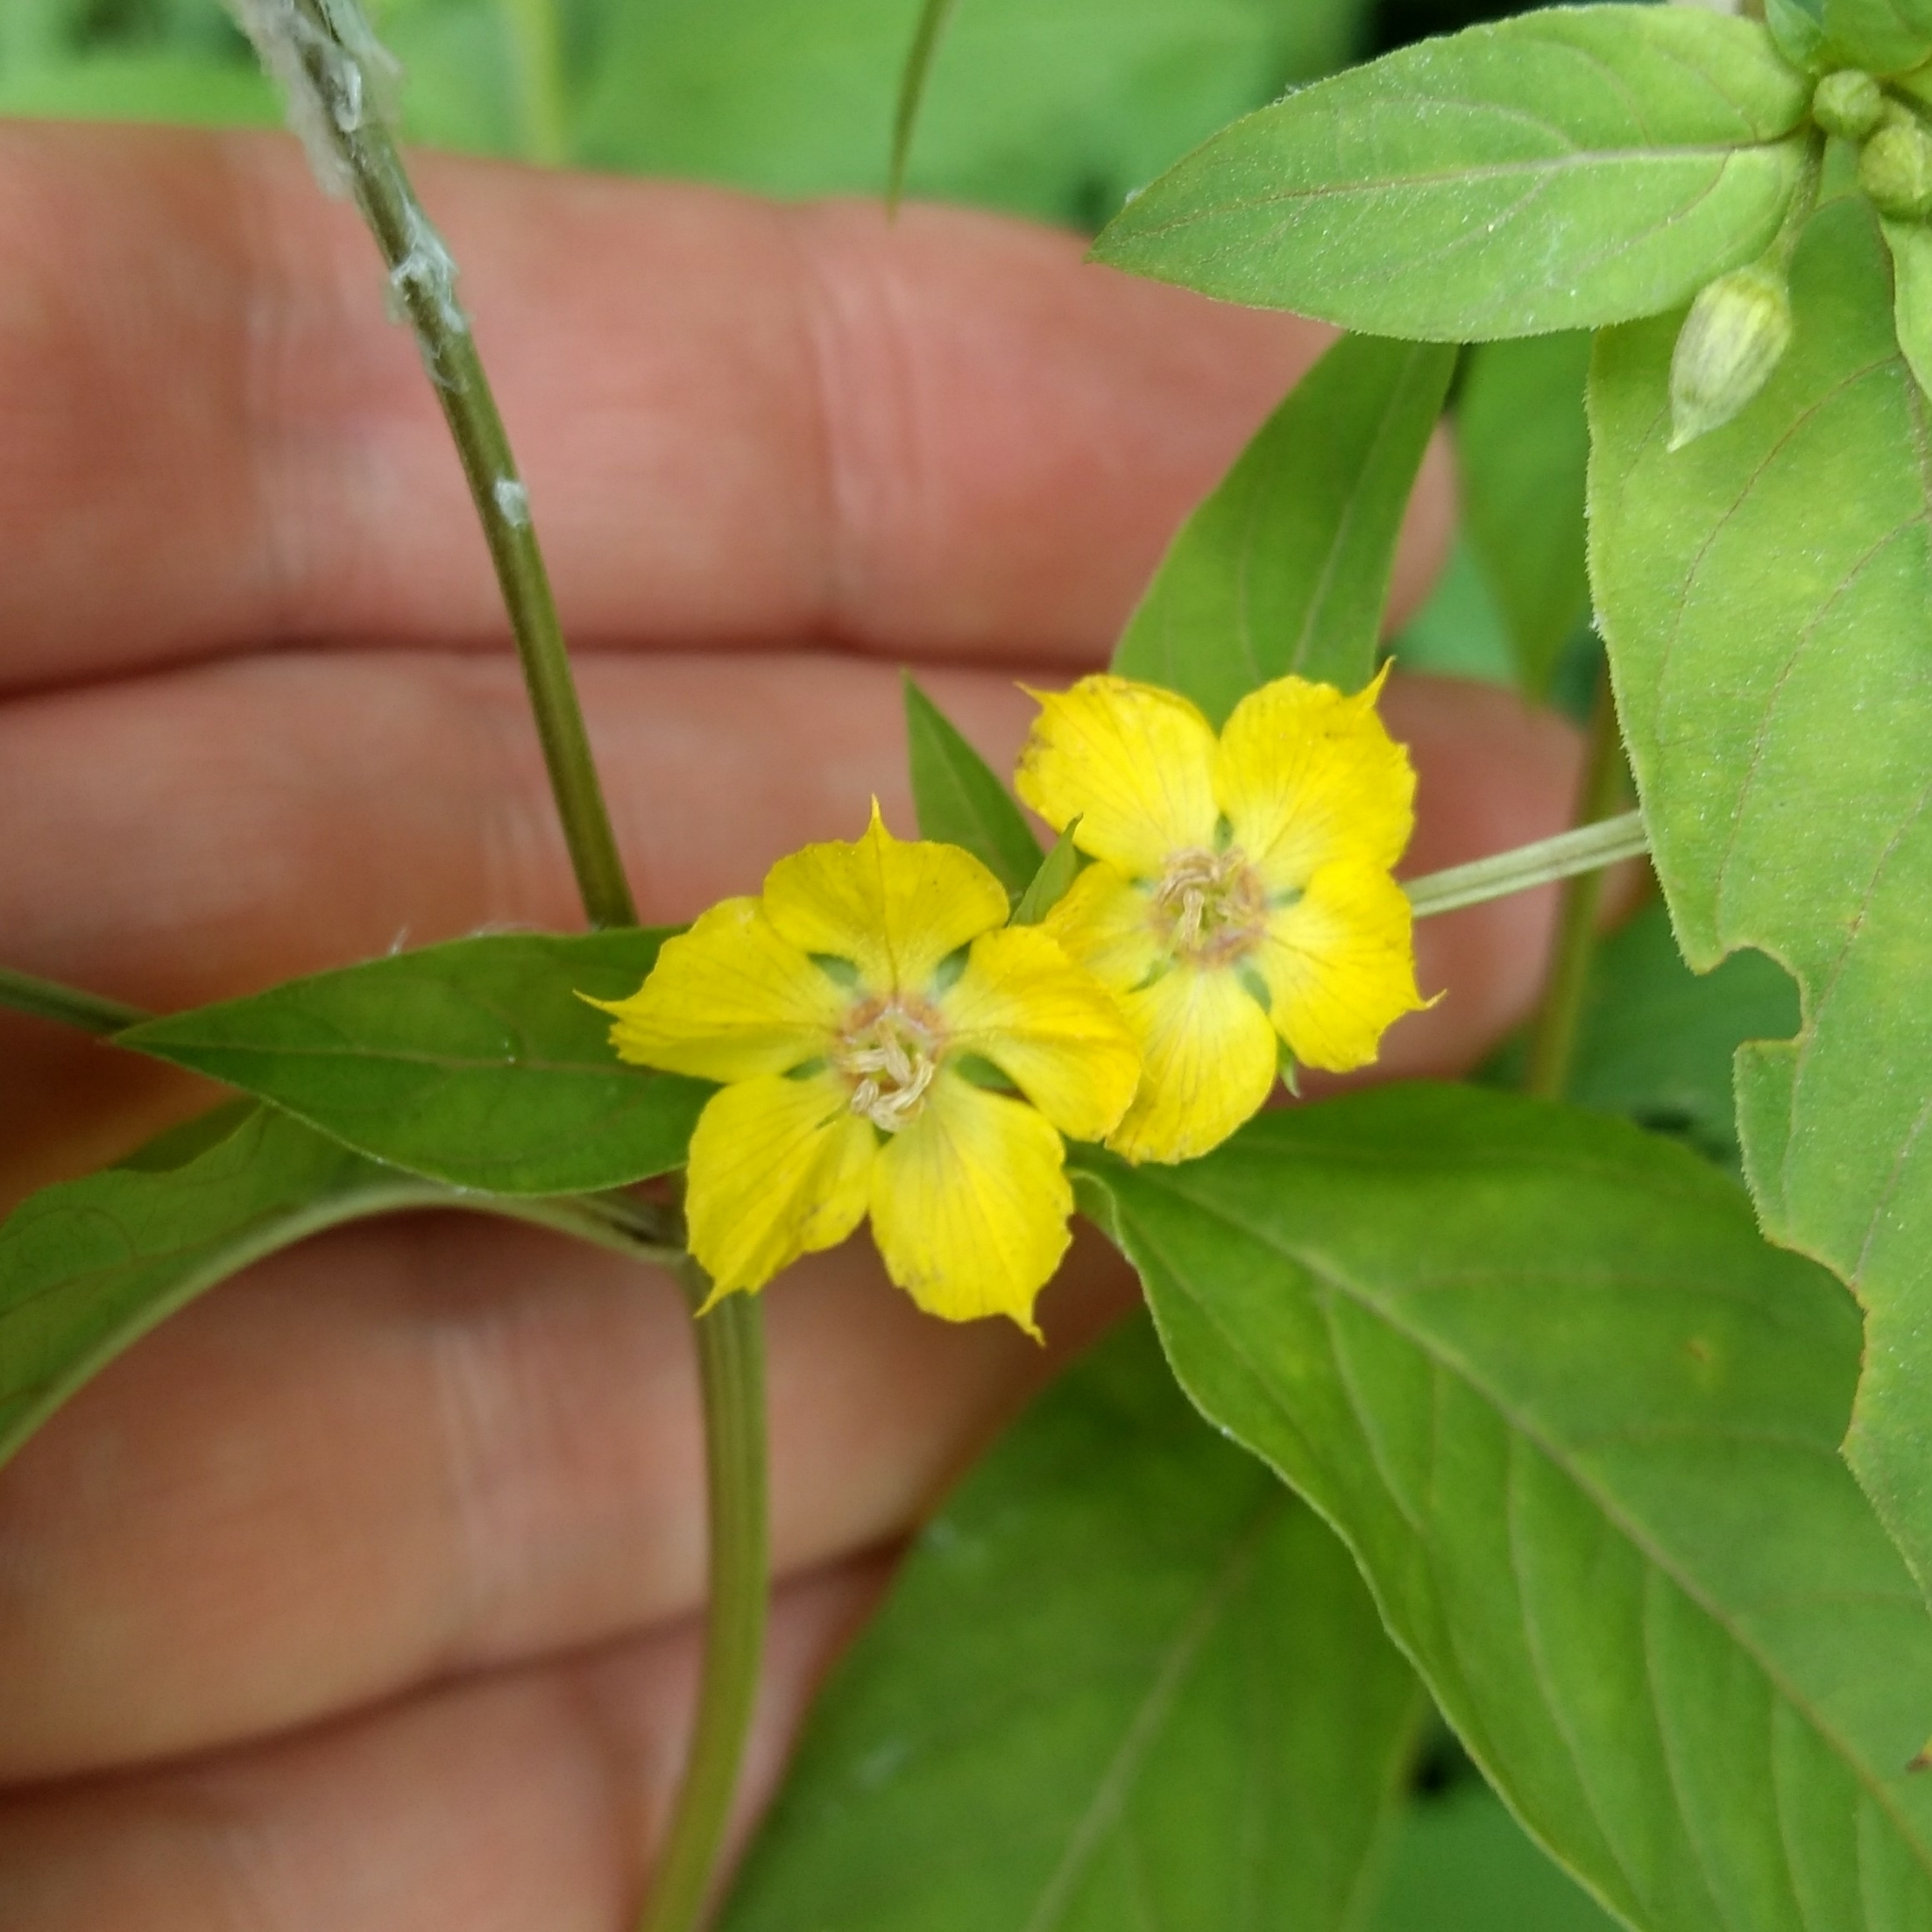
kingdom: Plantae
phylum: Tracheophyta
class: Magnoliopsida
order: Ericales
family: Primulaceae
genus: Lysimachia
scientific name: Lysimachia ciliata
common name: Fringed loosestrife
